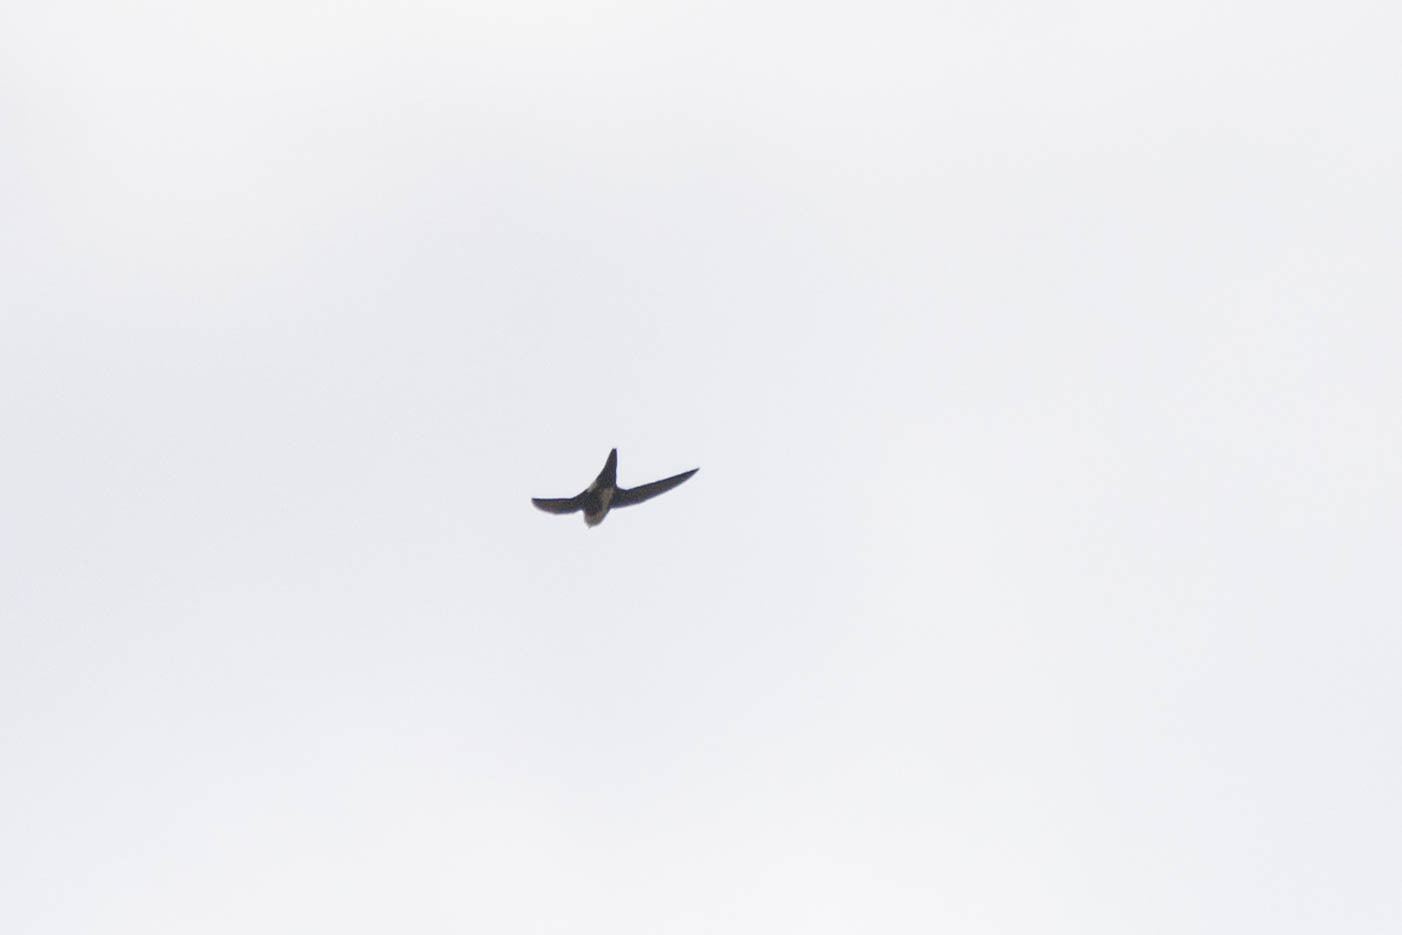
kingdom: Animalia
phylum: Chordata
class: Aves
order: Apodiformes
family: Apodidae
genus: Aeronautes
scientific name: Aeronautes saxatalis
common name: White-throated swift
